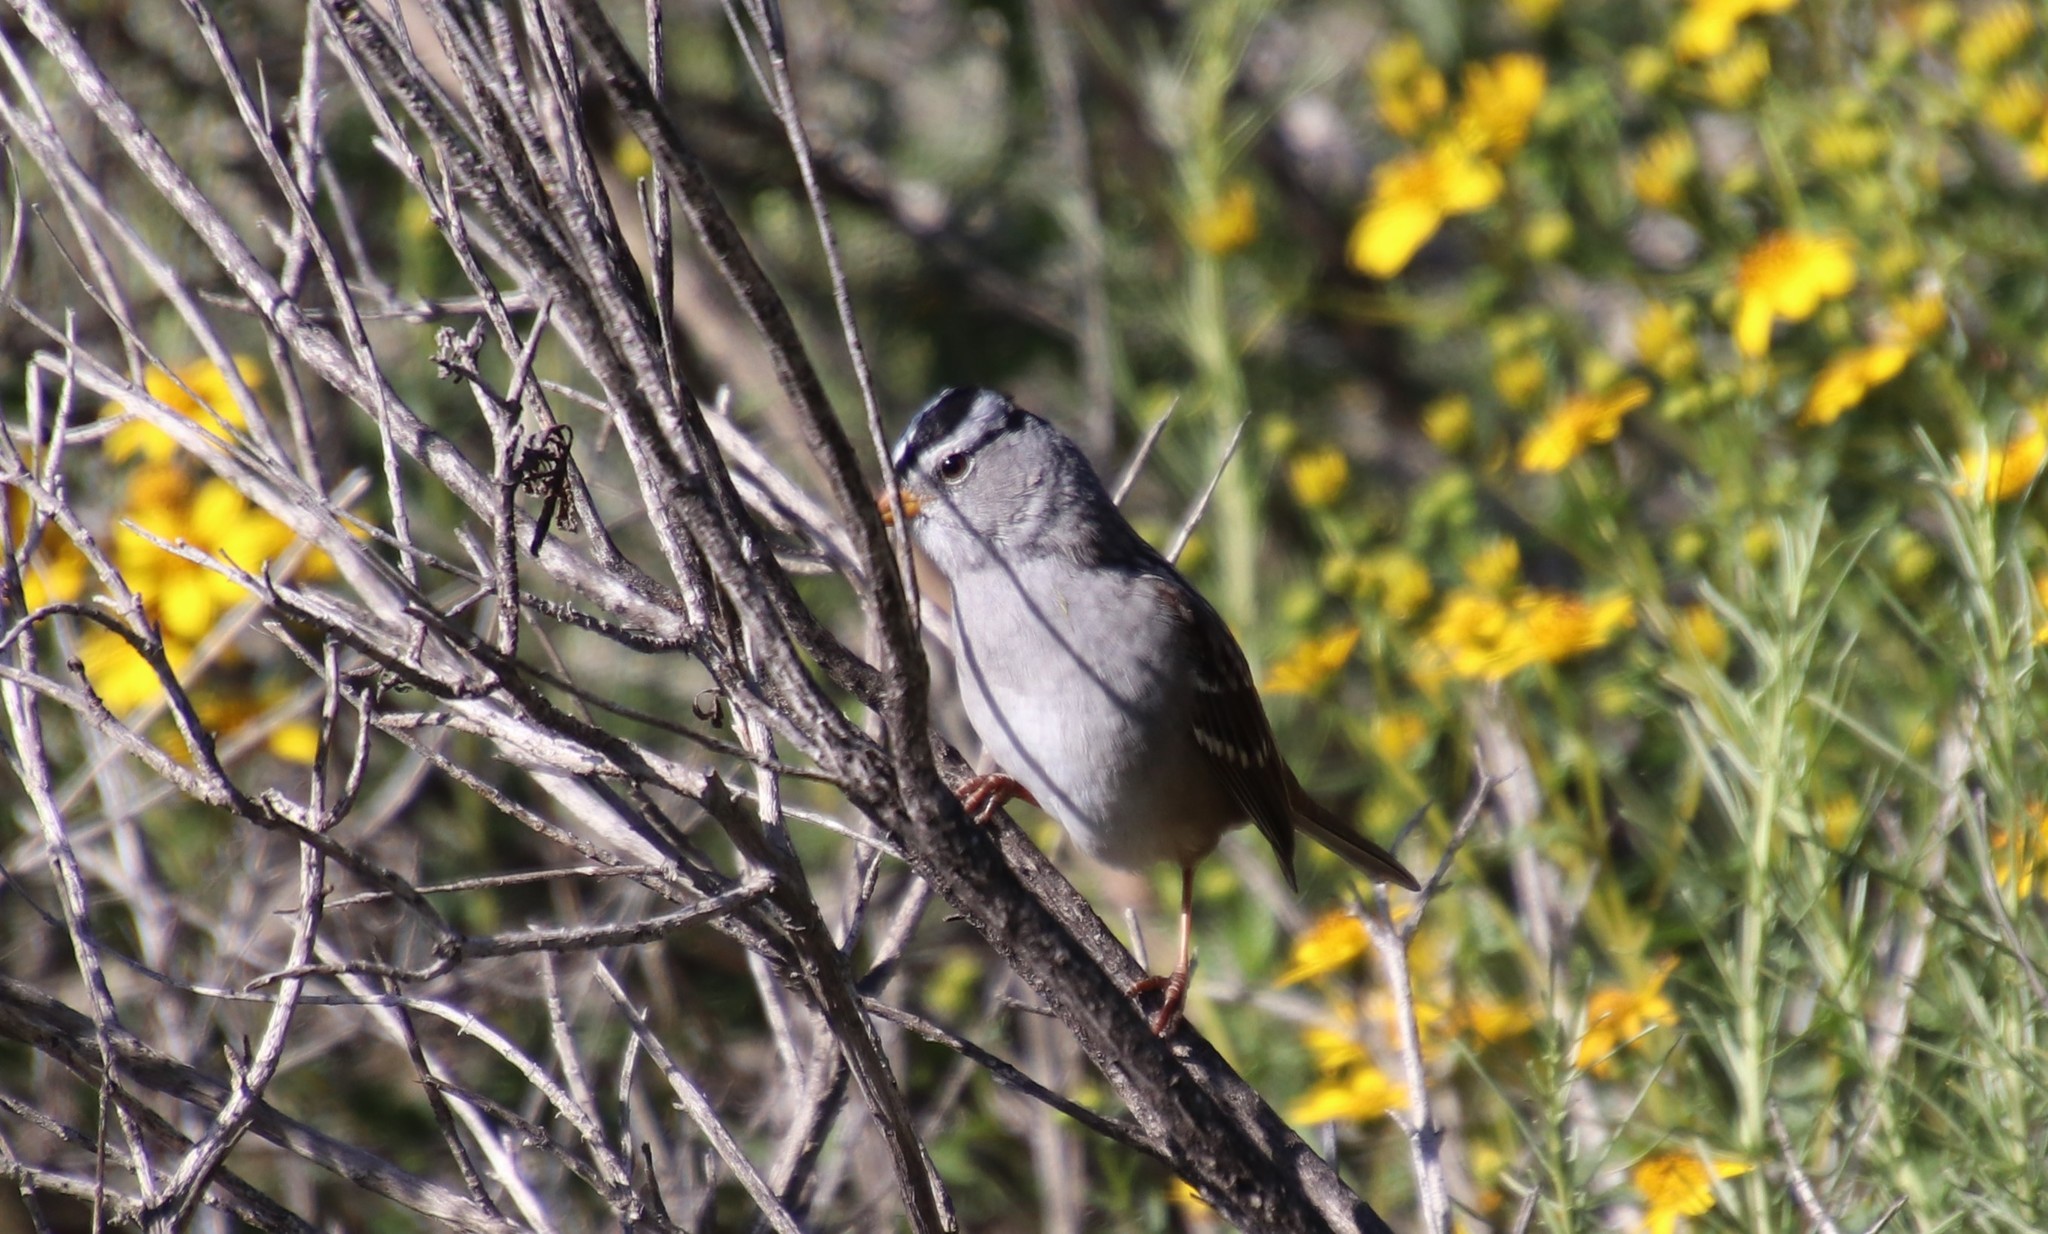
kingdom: Animalia
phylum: Chordata
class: Aves
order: Passeriformes
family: Passerellidae
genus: Zonotrichia
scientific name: Zonotrichia leucophrys
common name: White-crowned sparrow
